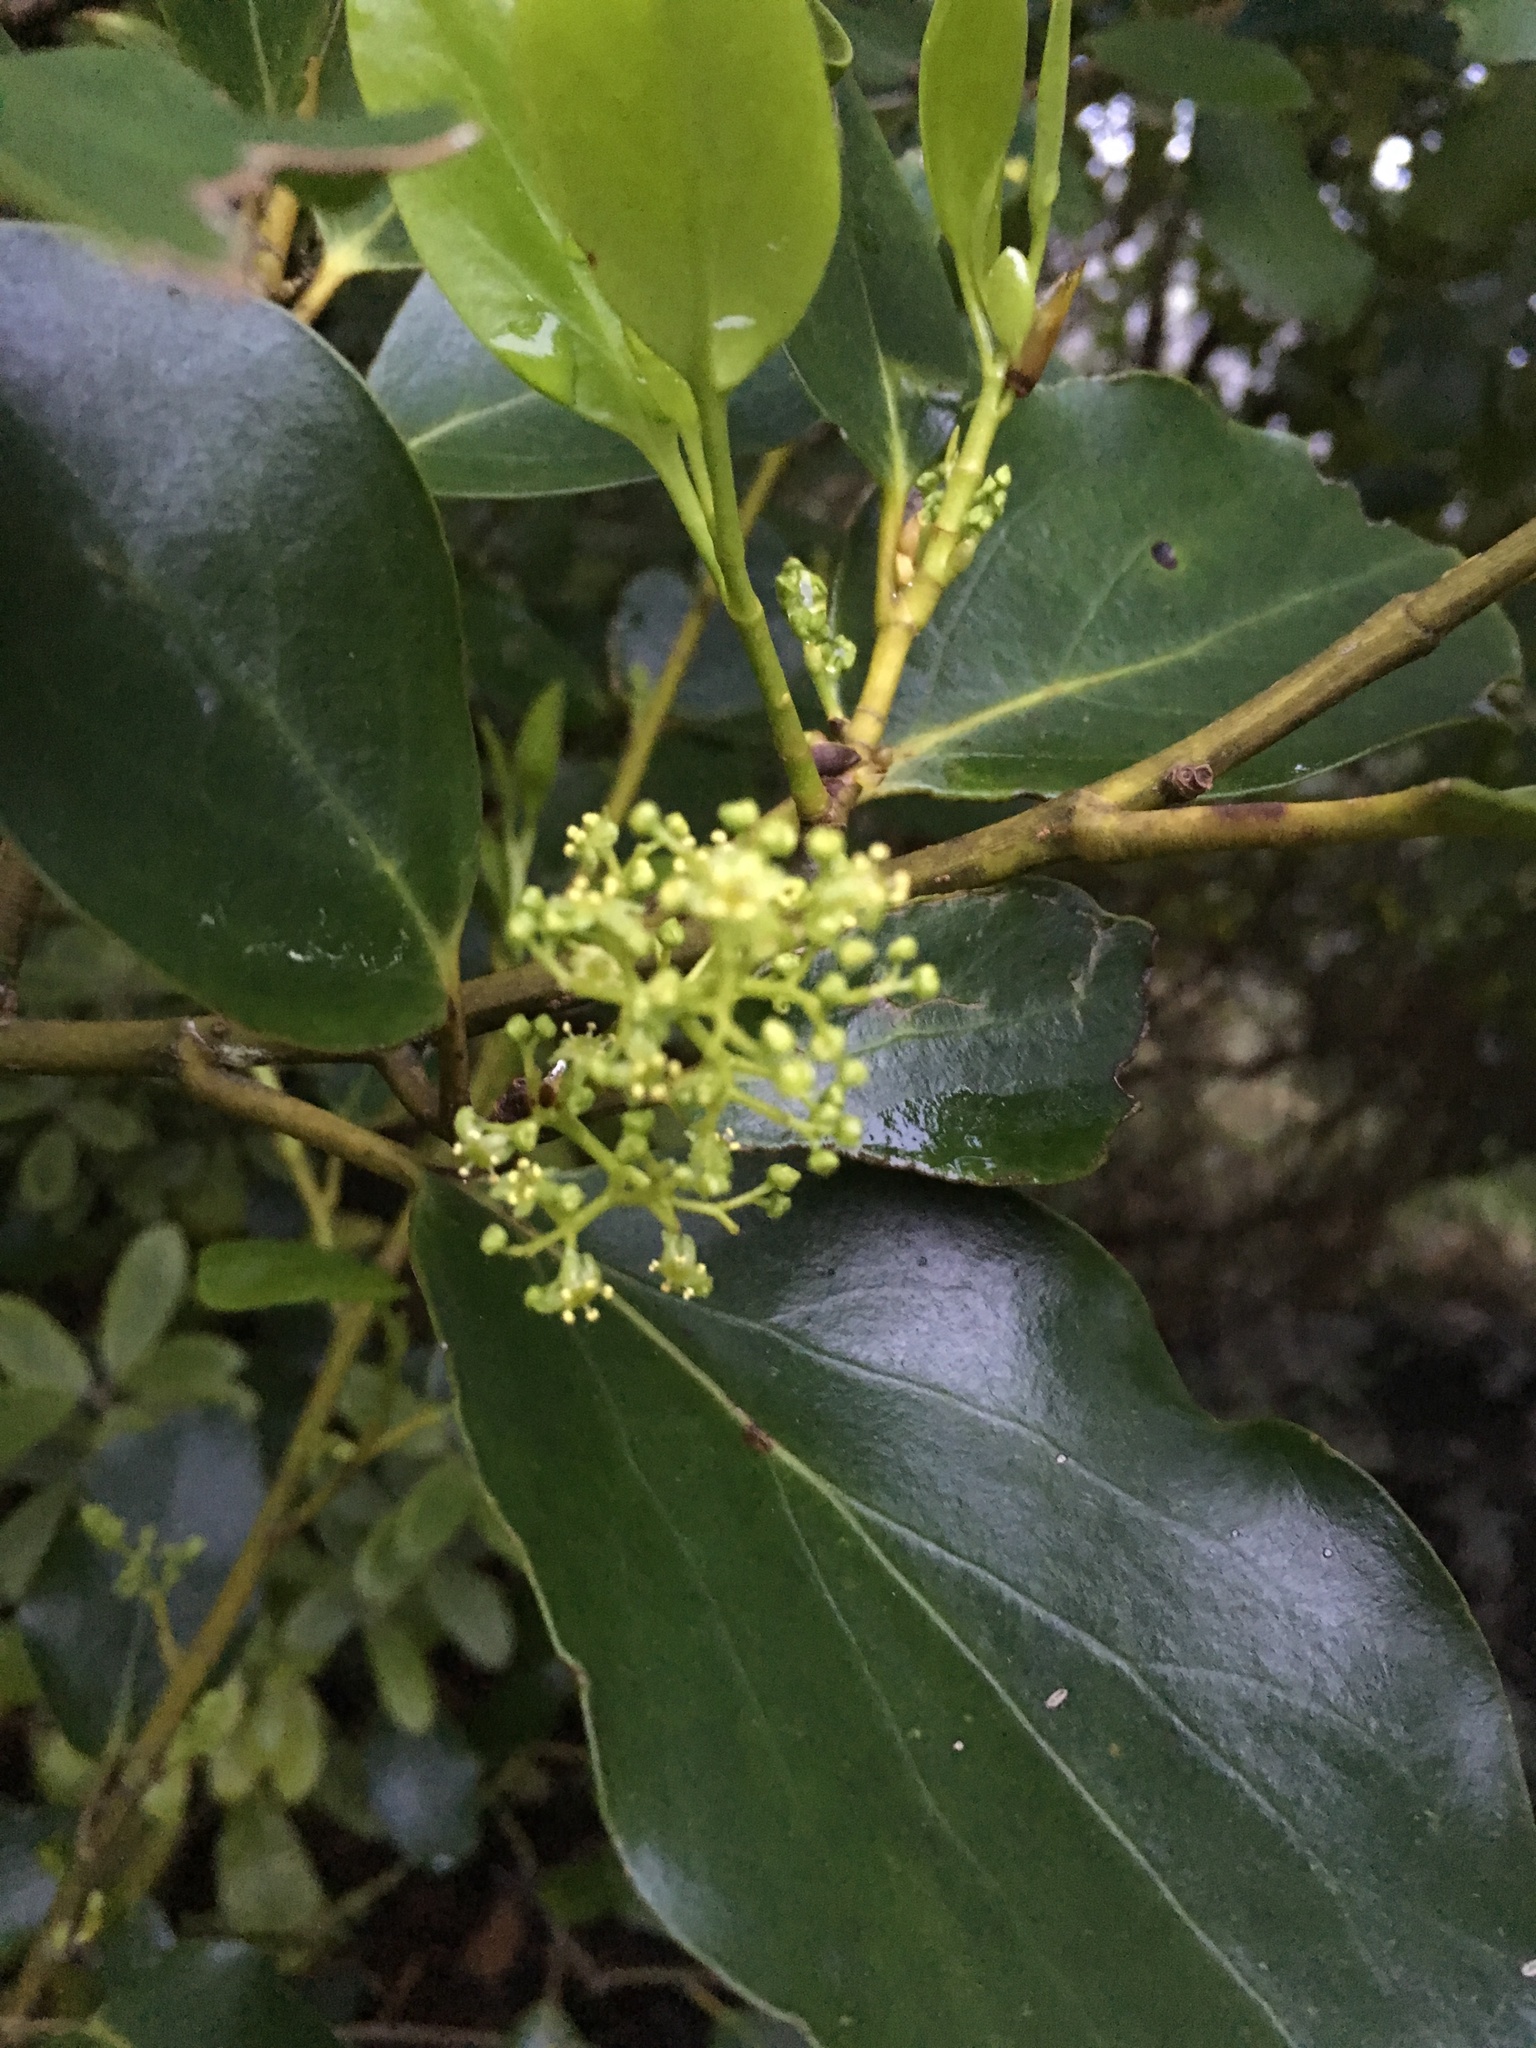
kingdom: Plantae
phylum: Tracheophyta
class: Magnoliopsida
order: Apiales
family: Griseliniaceae
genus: Griselinia
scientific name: Griselinia littoralis
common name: New zealand broadleaf
